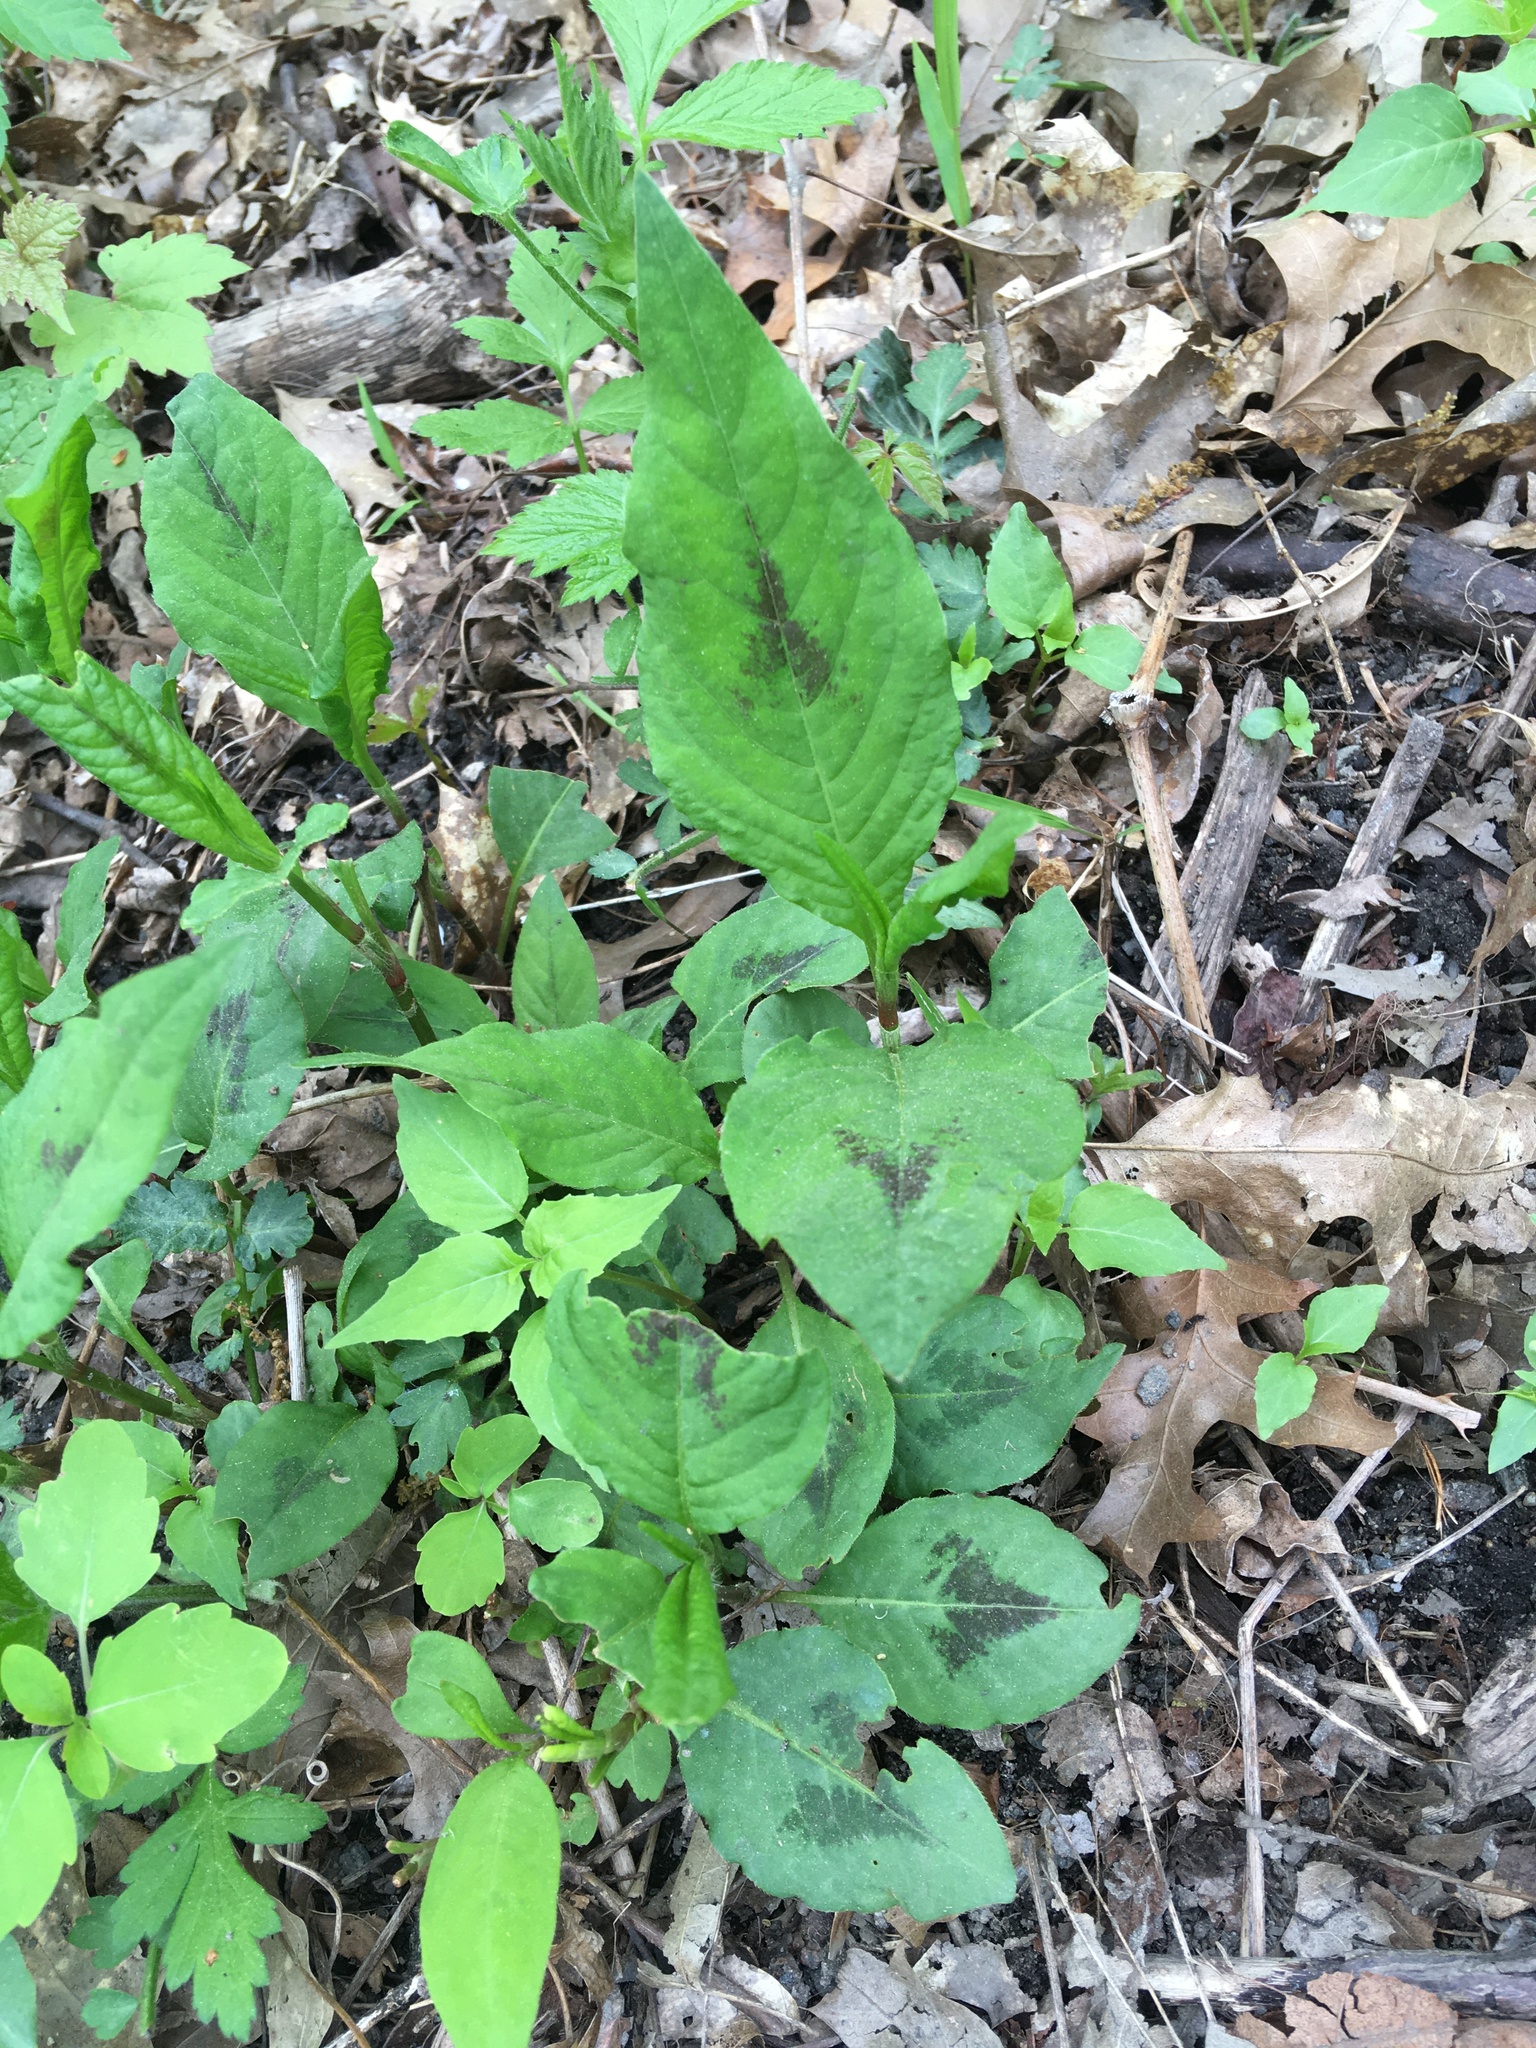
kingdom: Plantae
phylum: Tracheophyta
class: Magnoliopsida
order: Caryophyllales
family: Polygonaceae
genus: Persicaria
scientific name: Persicaria virginiana
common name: Jumpseed
